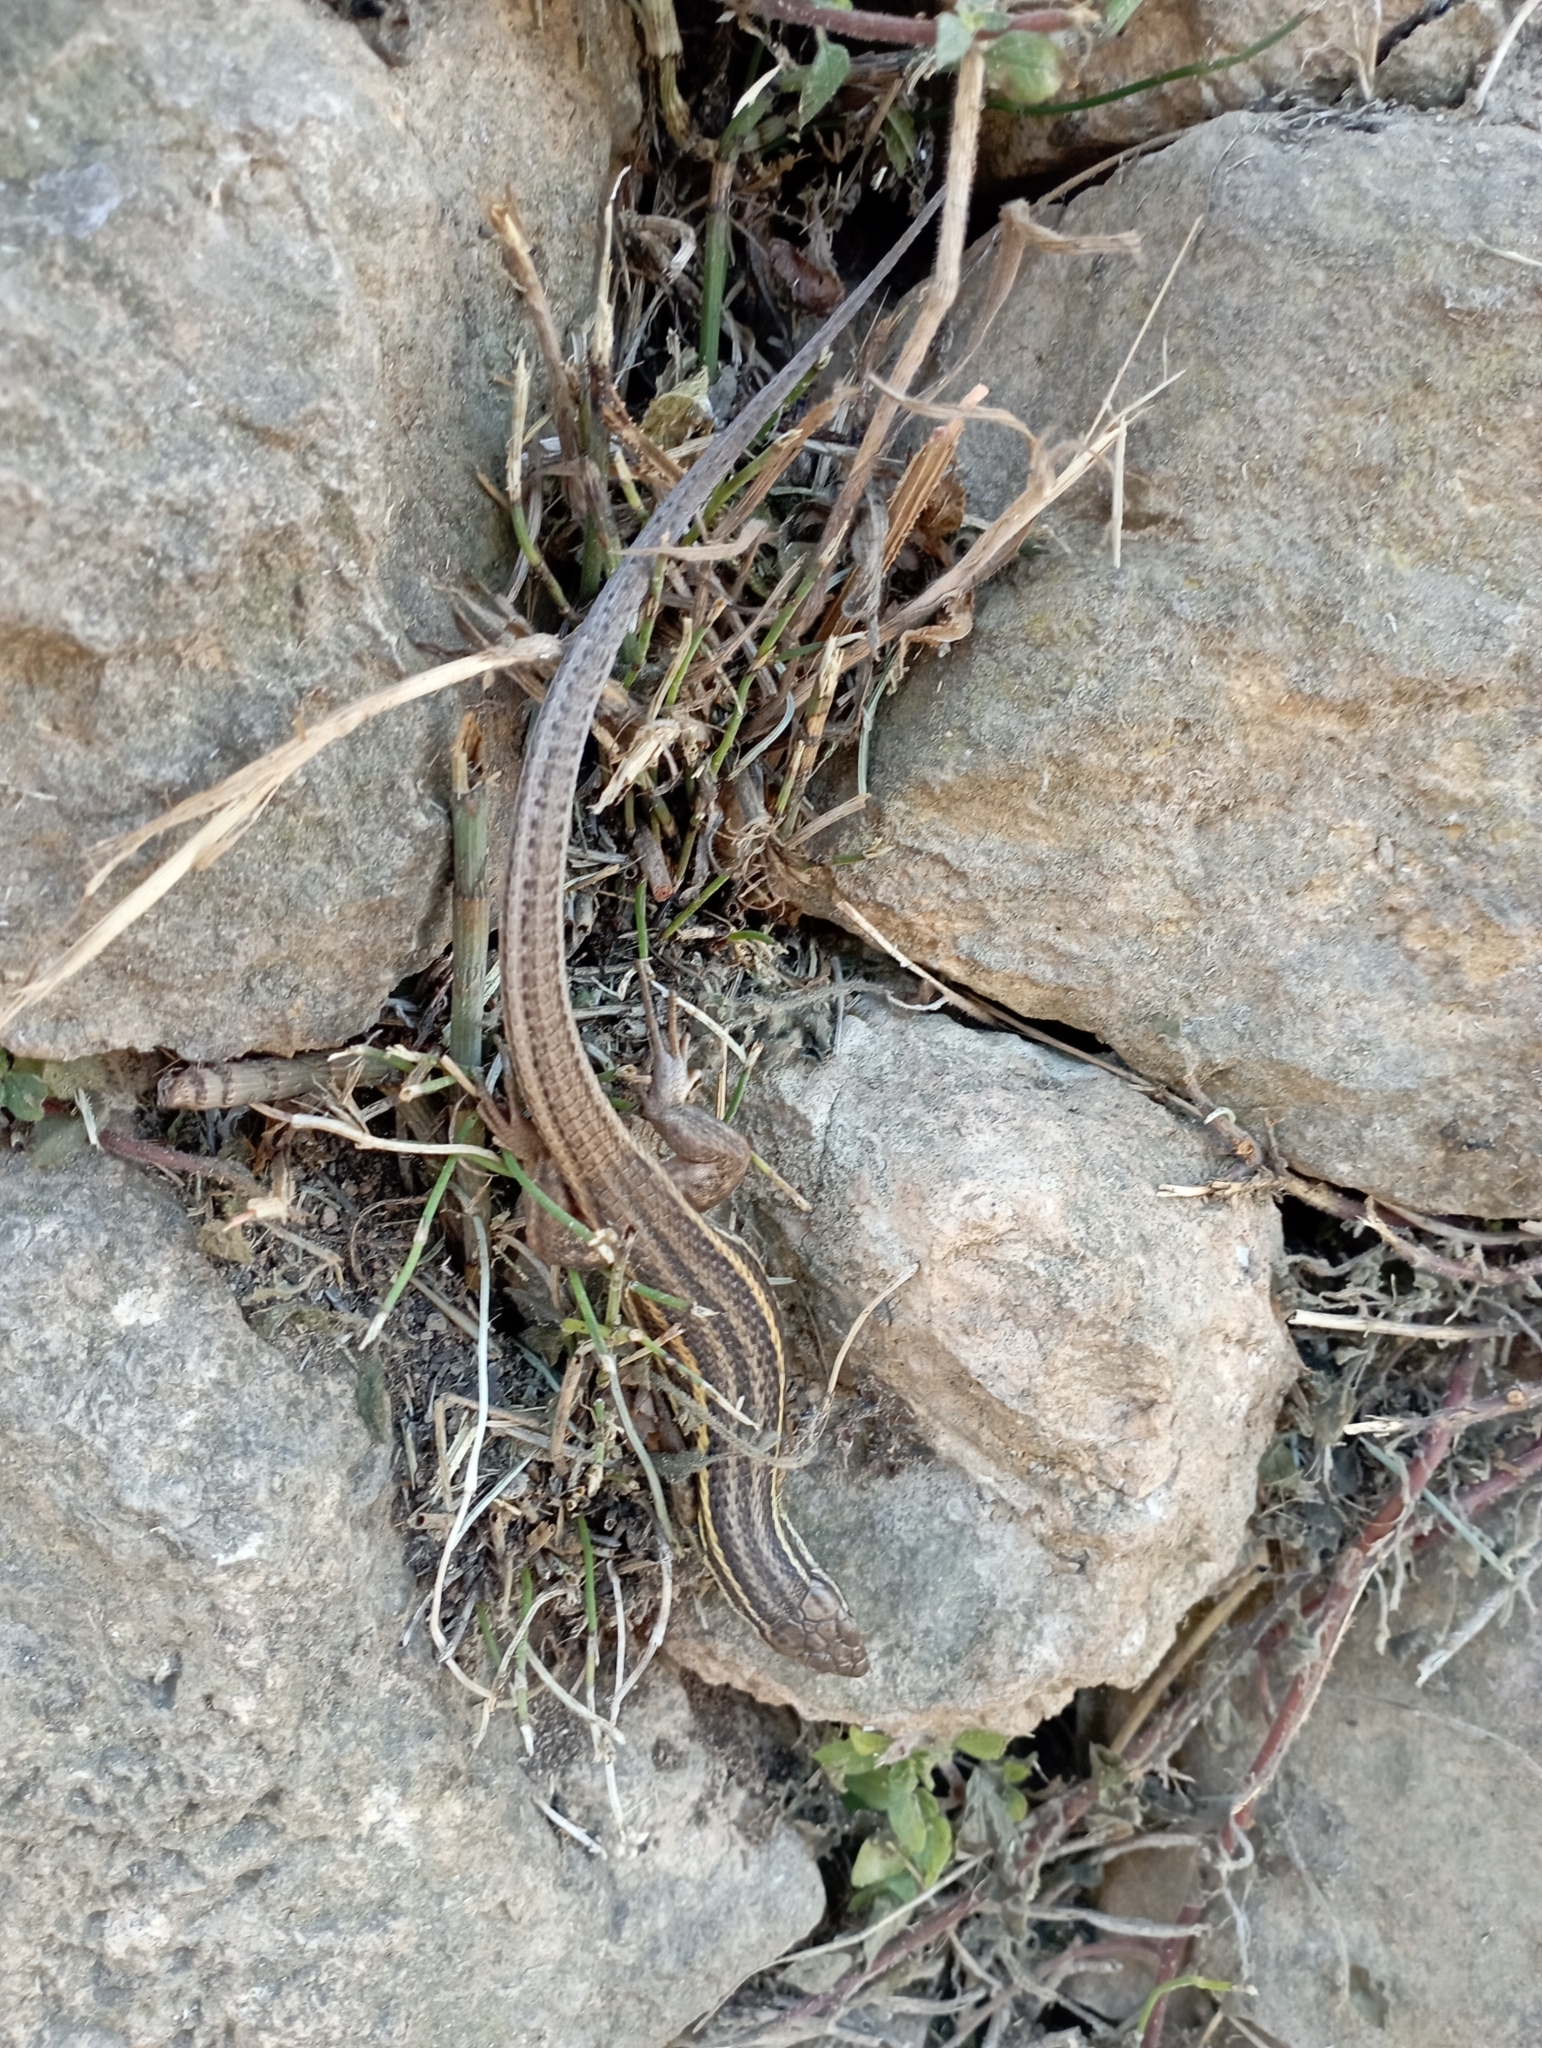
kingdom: Animalia
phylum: Chordata
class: Squamata
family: Lacertidae
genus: Psammodromus
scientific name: Psammodromus algirus
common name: Algerian psammodromus
